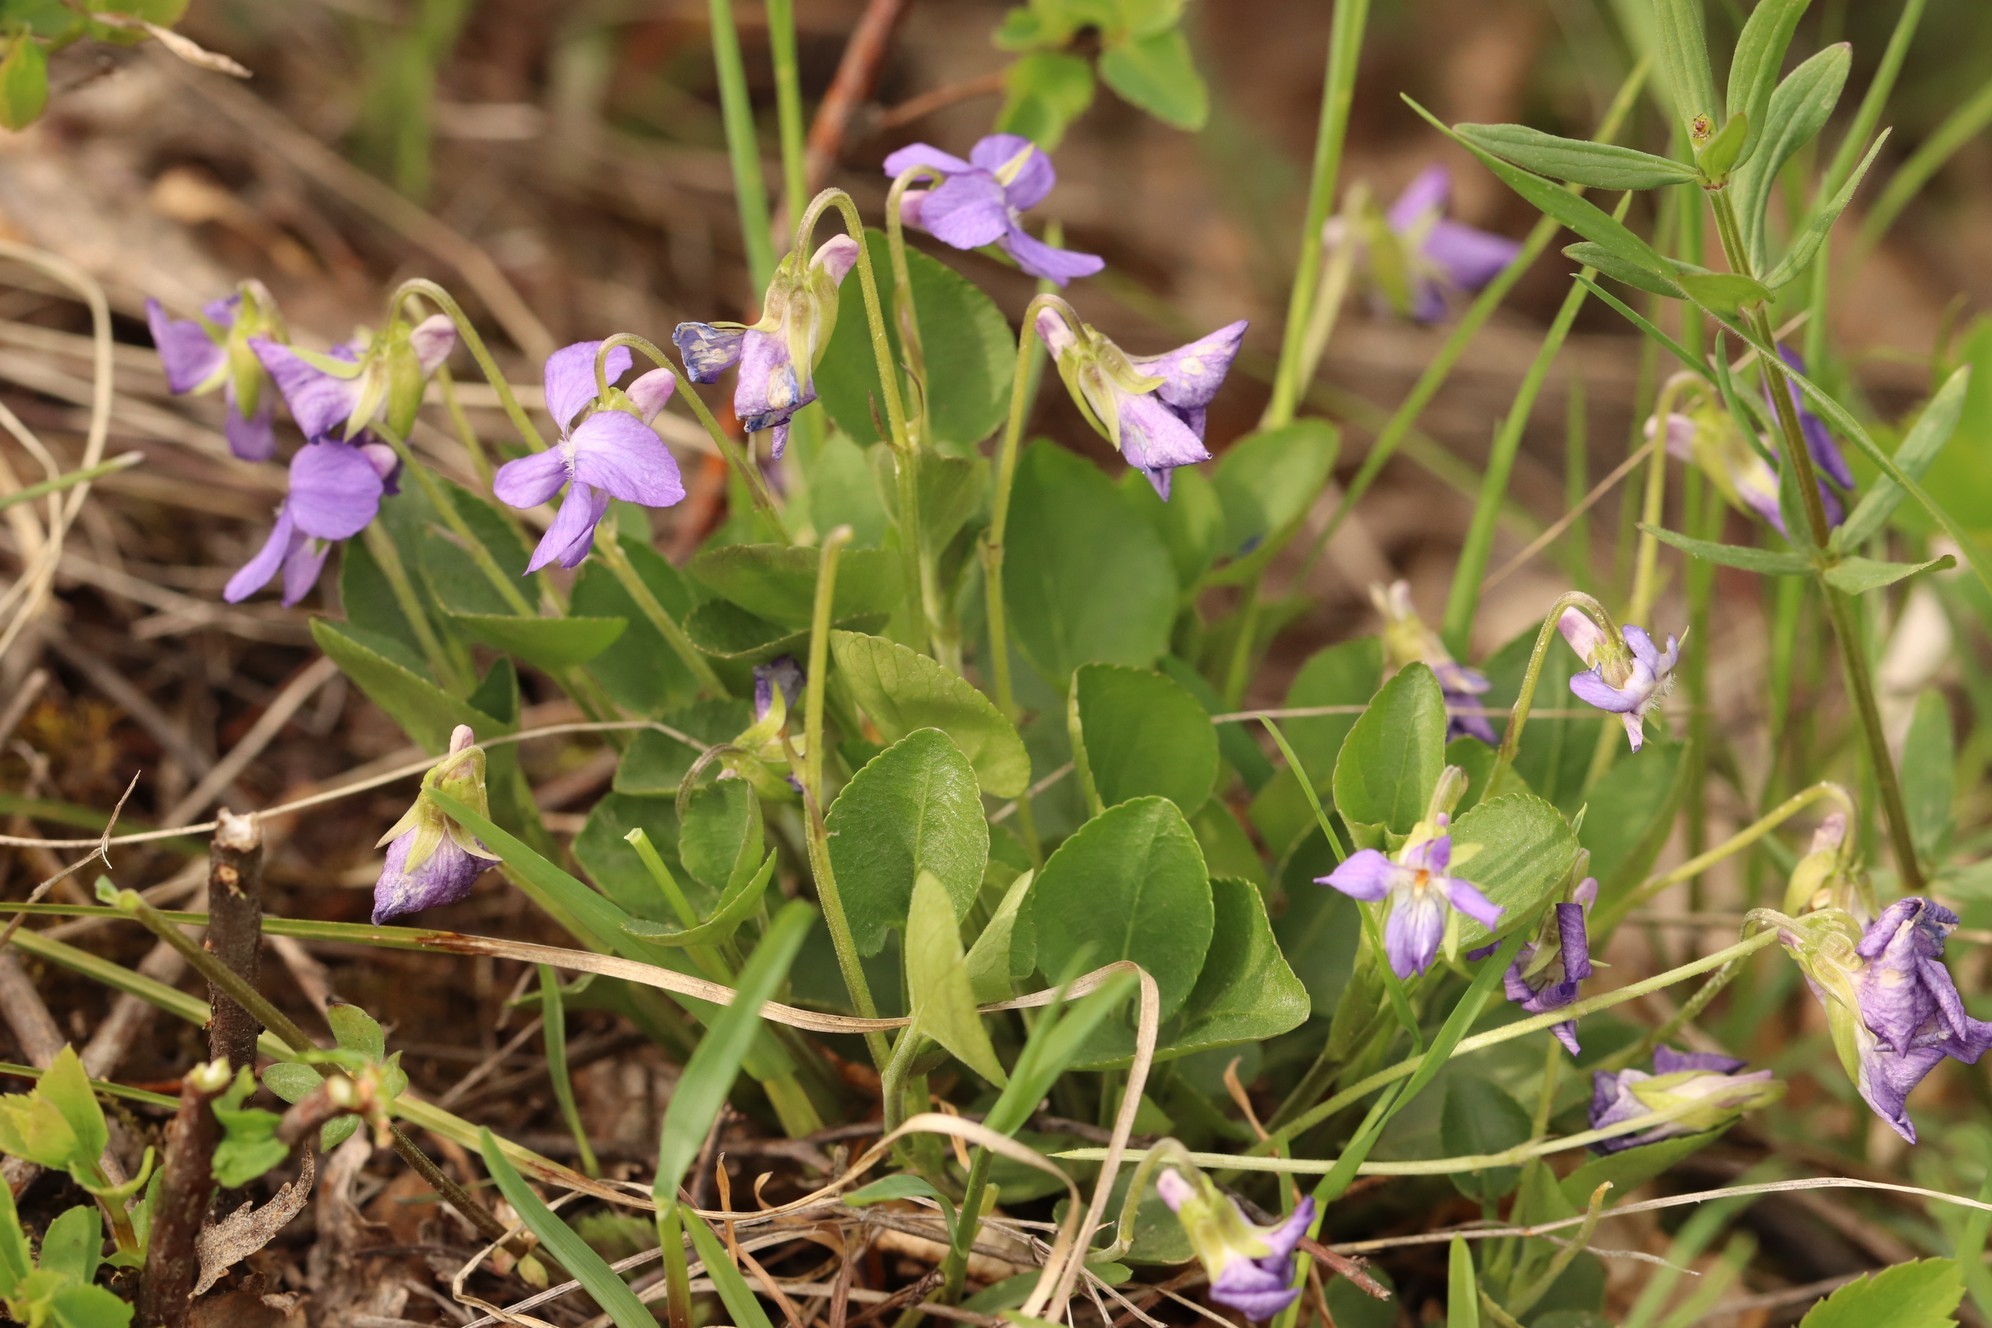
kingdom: Plantae
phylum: Tracheophyta
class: Magnoliopsida
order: Malpighiales
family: Violaceae
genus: Viola
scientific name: Viola rupestris
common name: Teesdale violet
